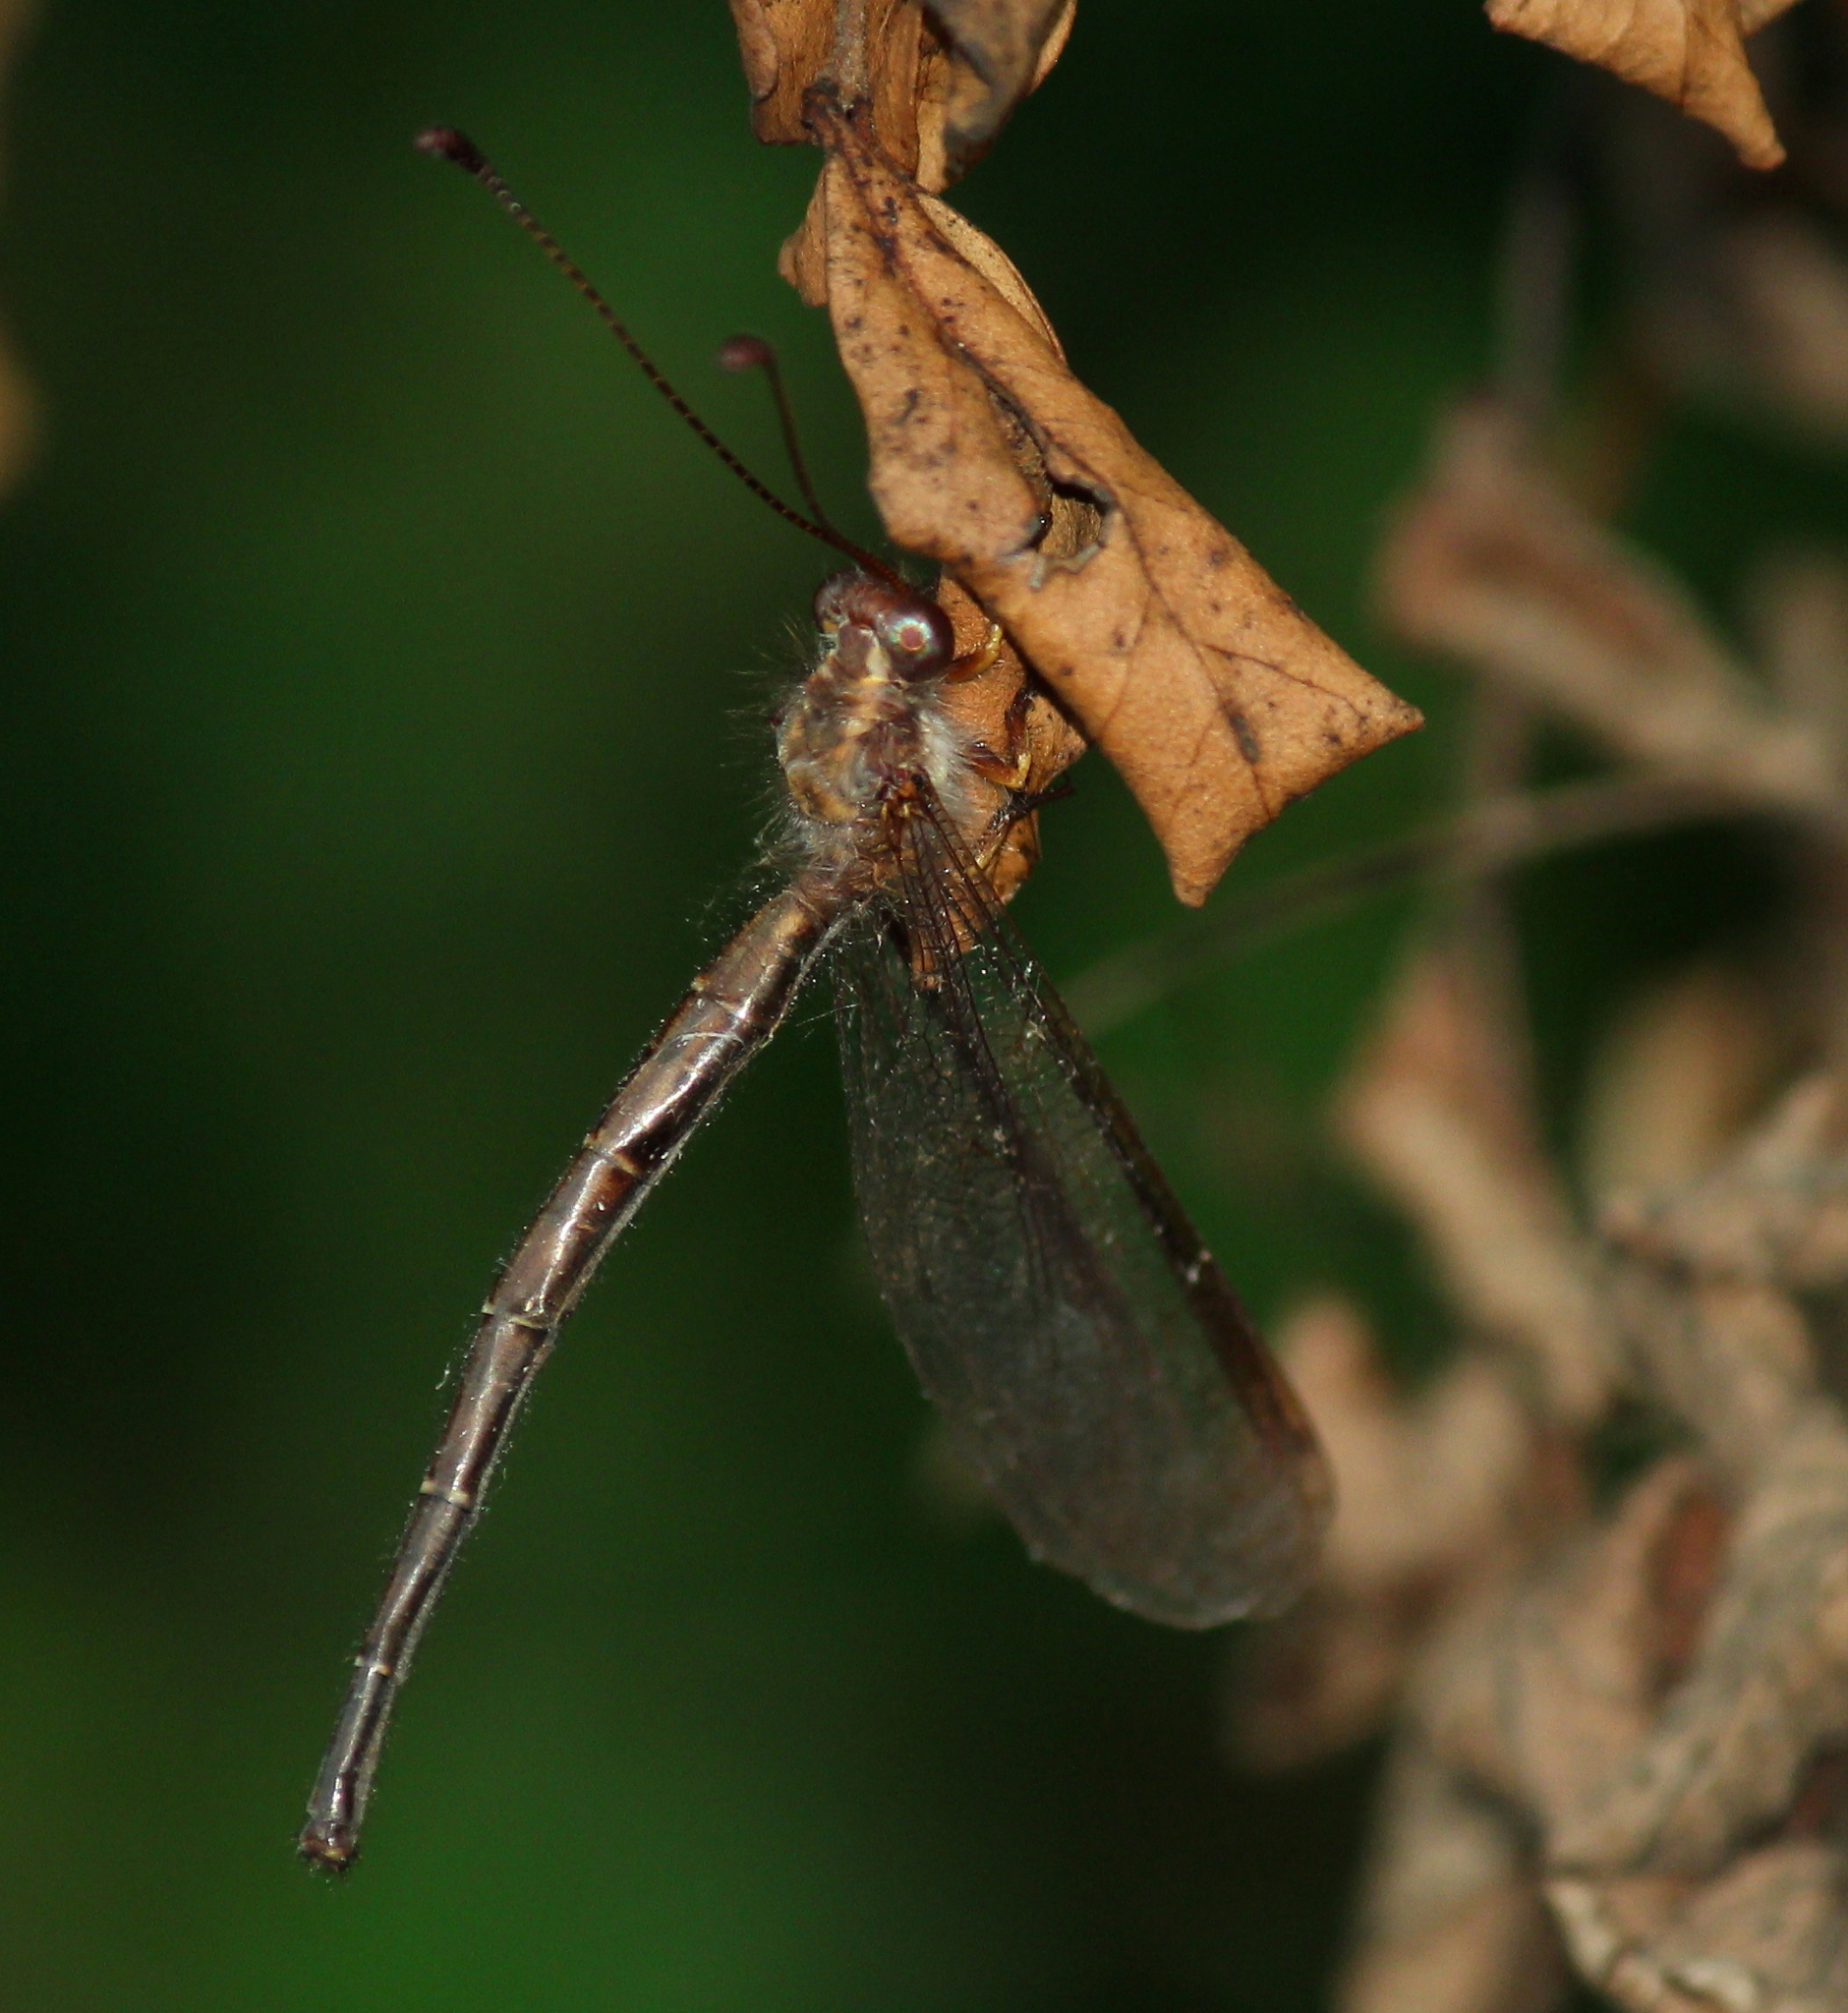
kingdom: Animalia
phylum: Arthropoda
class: Insecta
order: Neuroptera
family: Ascalaphidae
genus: Ascaloptynx
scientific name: Ascaloptynx appendiculata
